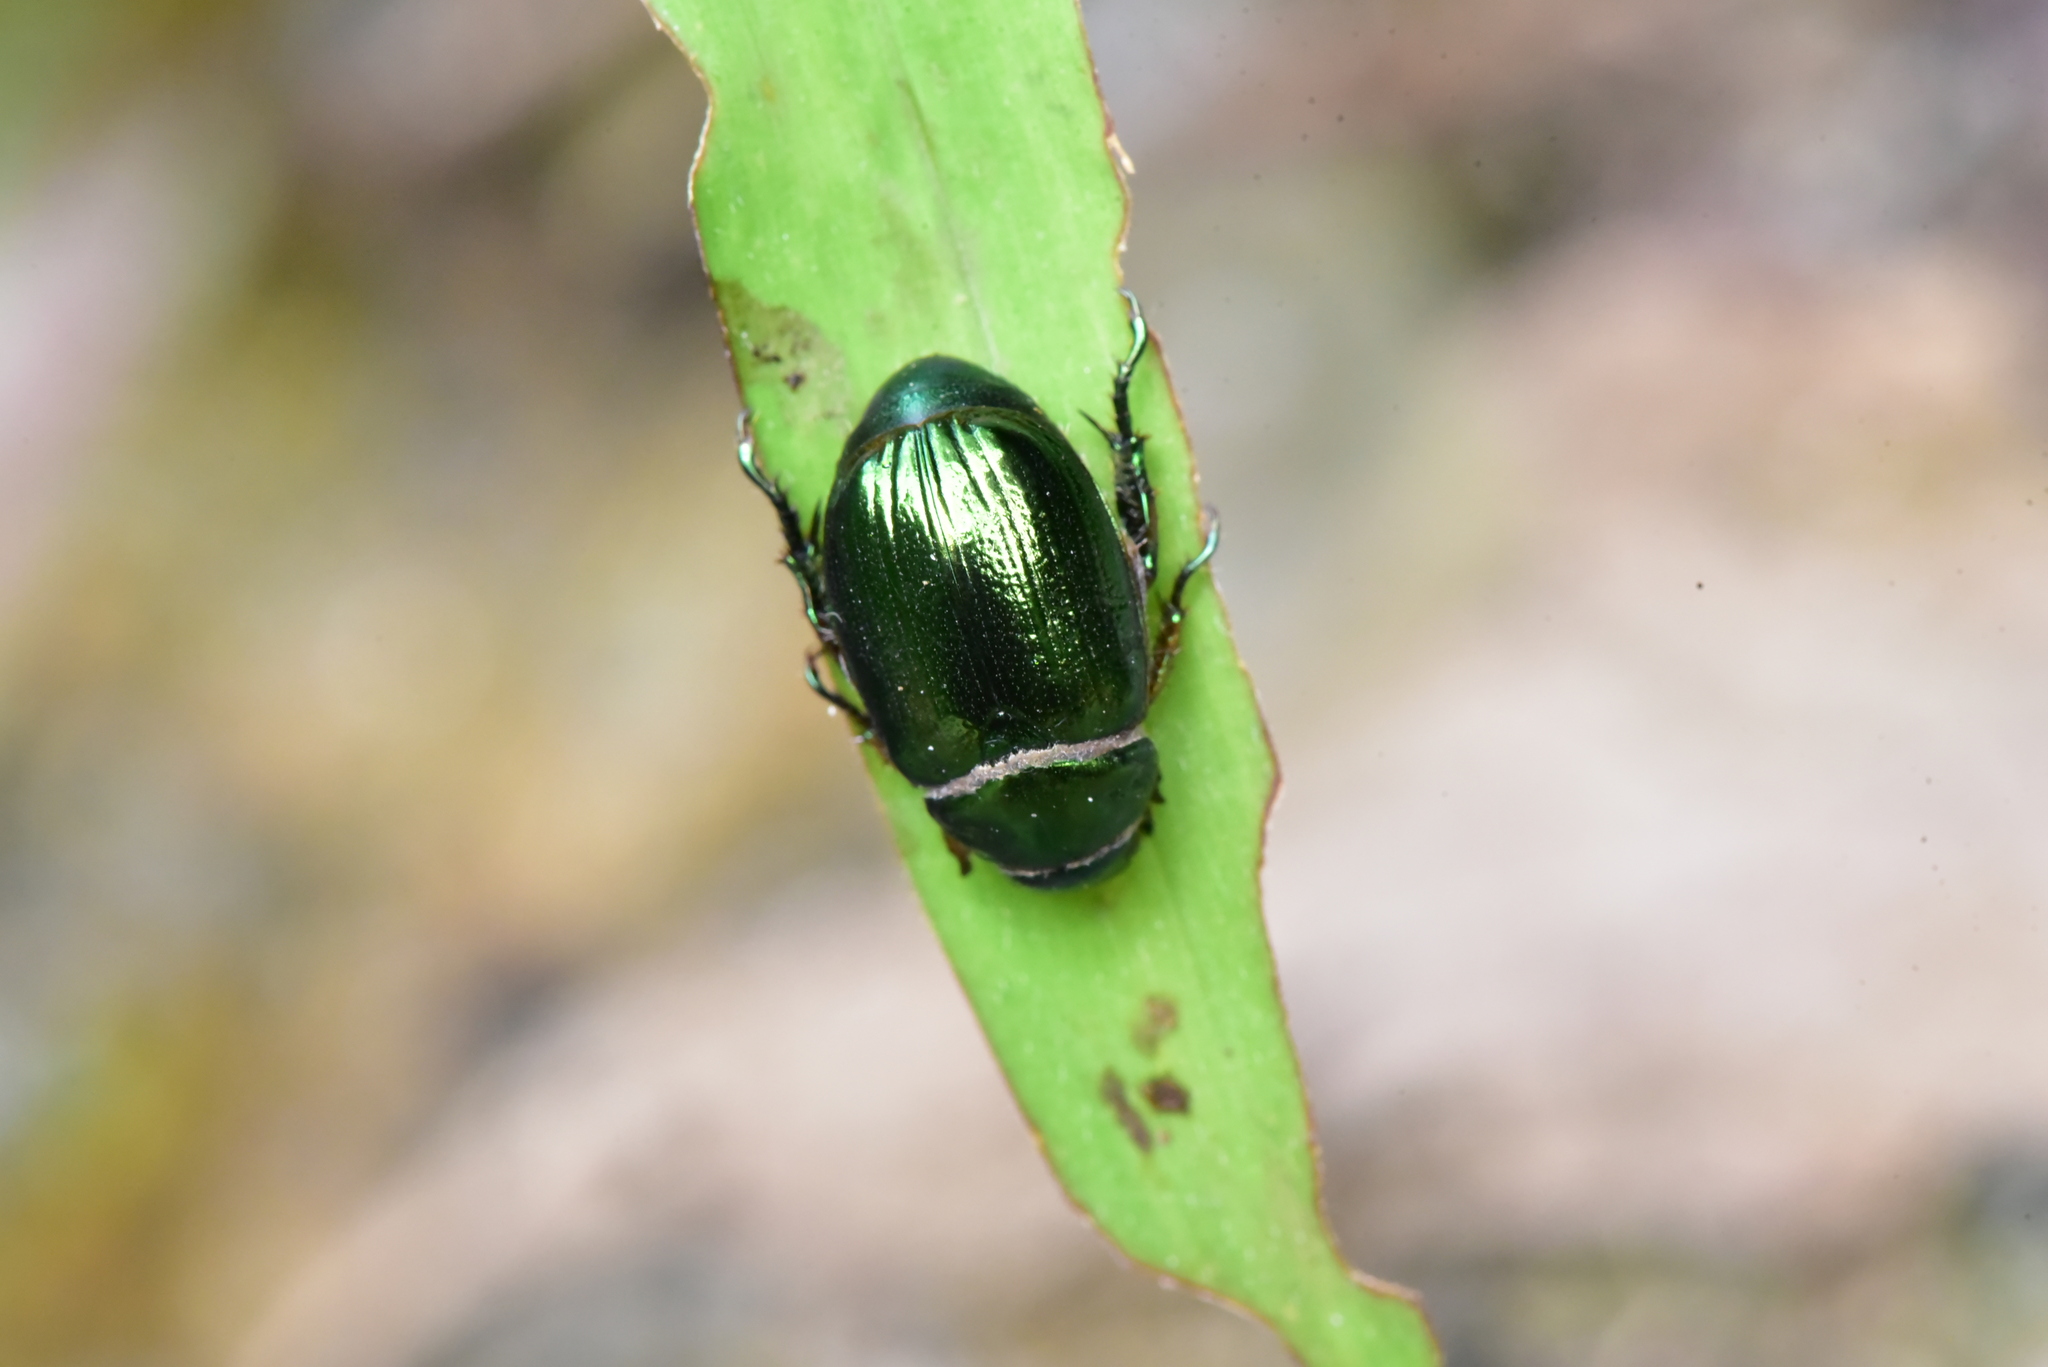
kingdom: Animalia
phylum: Arthropoda
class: Insecta
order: Coleoptera
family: Scarabaeidae
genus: Mimela
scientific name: Mimela ignicauda
